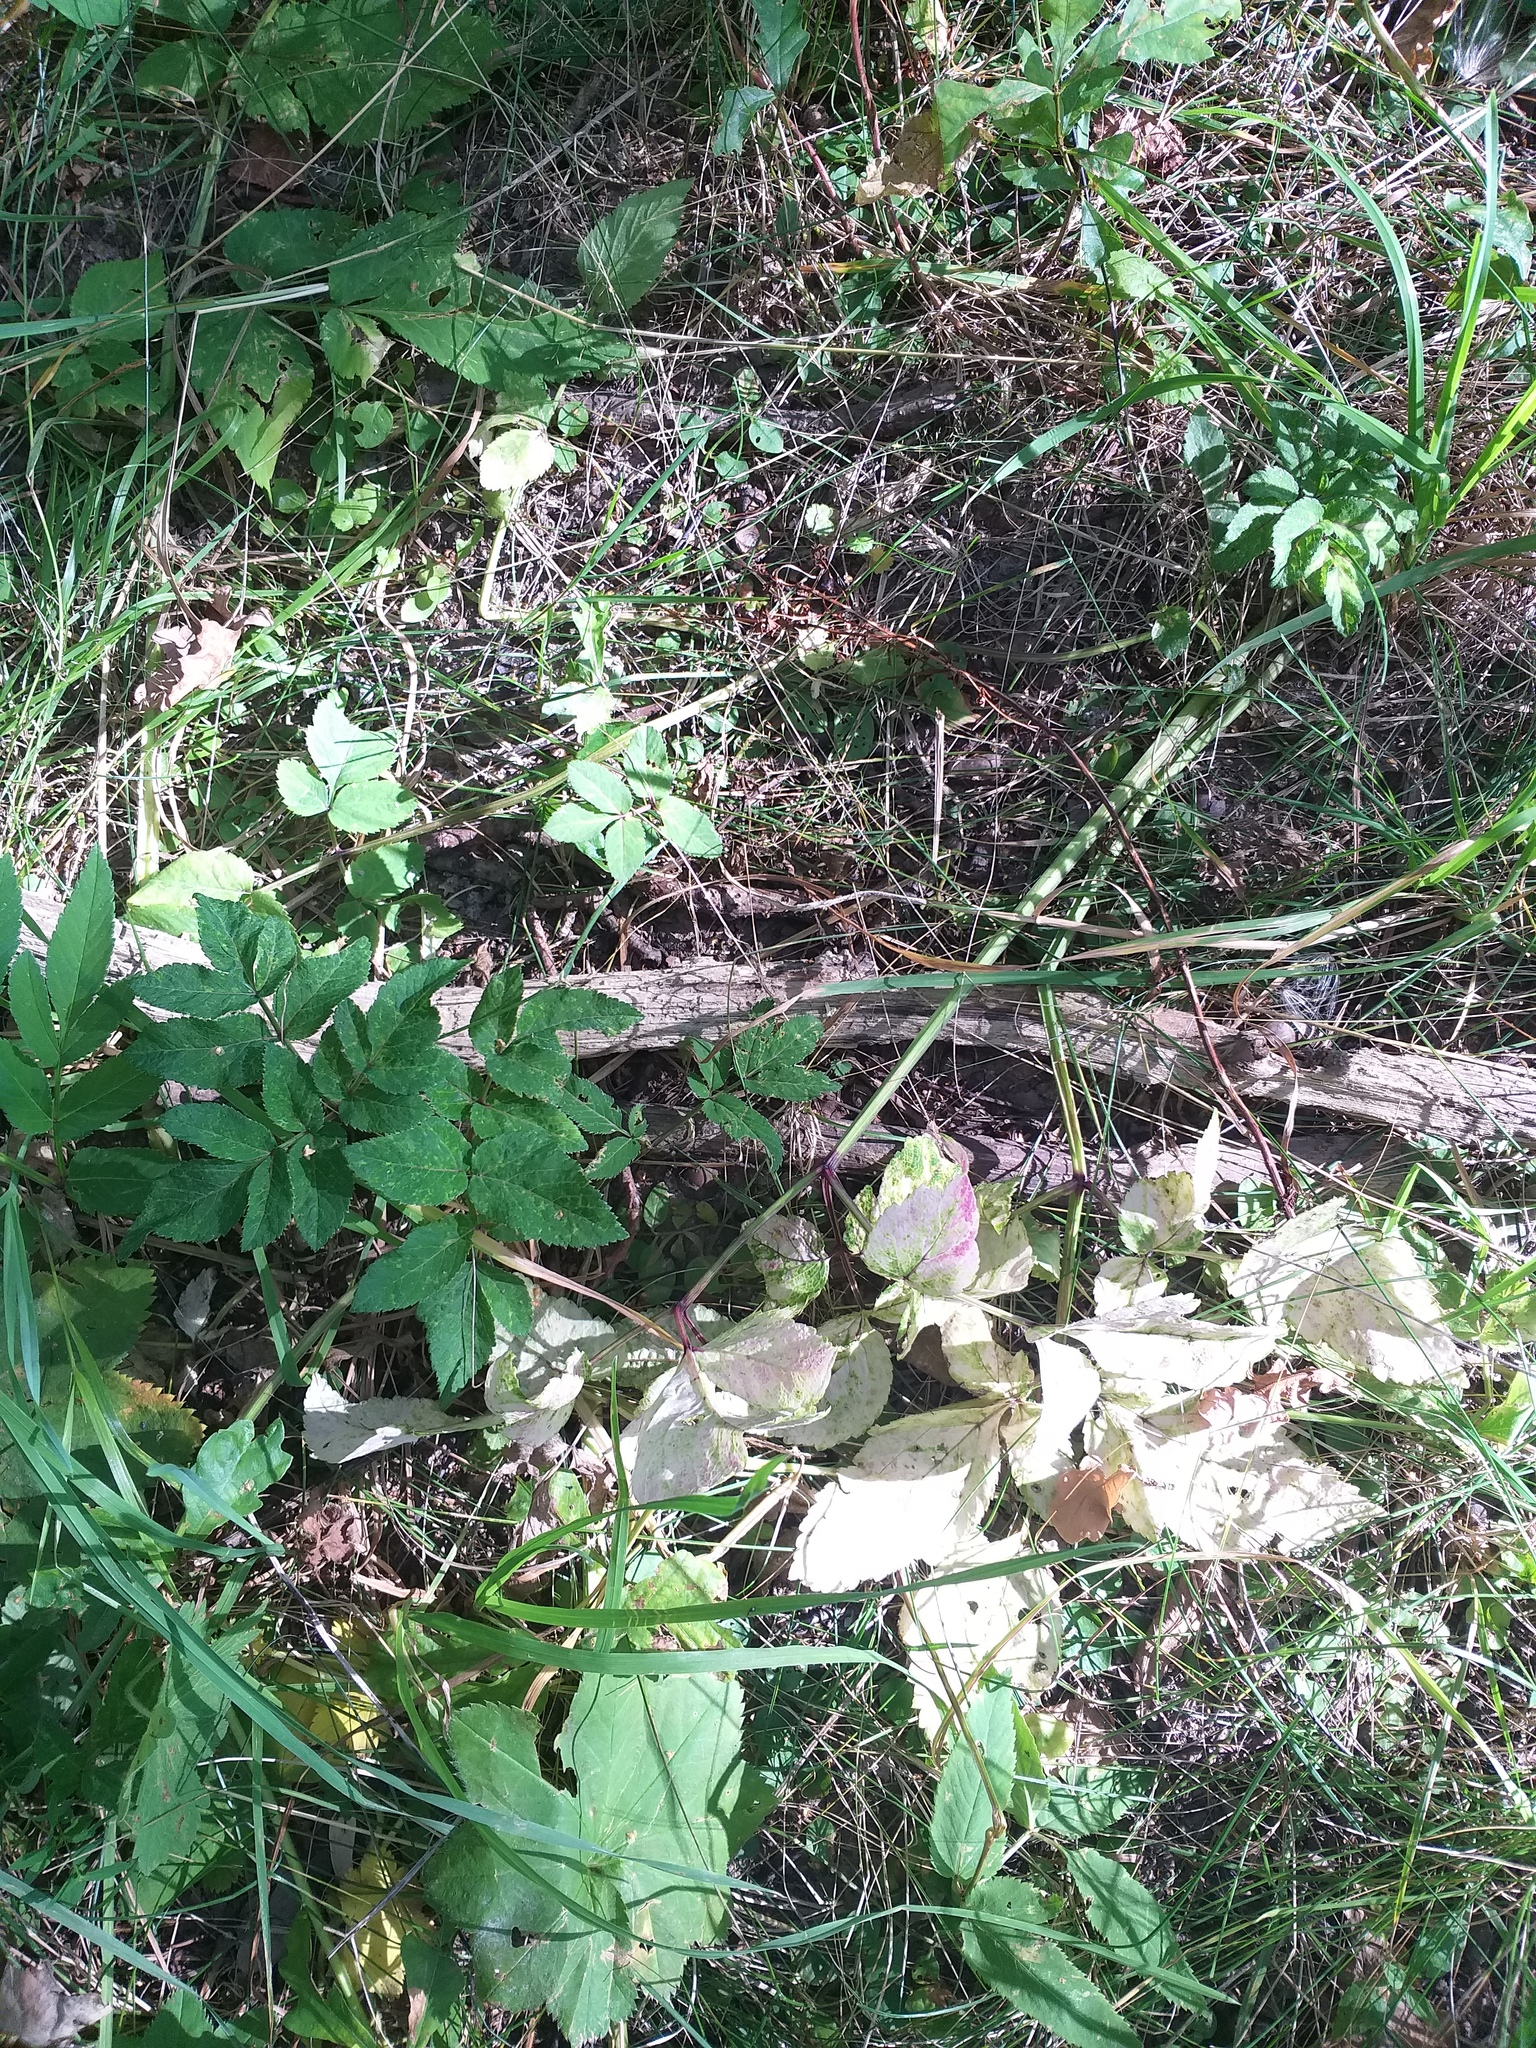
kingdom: Plantae
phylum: Tracheophyta
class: Magnoliopsida
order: Apiales
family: Apiaceae
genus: Angelica
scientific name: Angelica sylvestris
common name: Wild angelica
